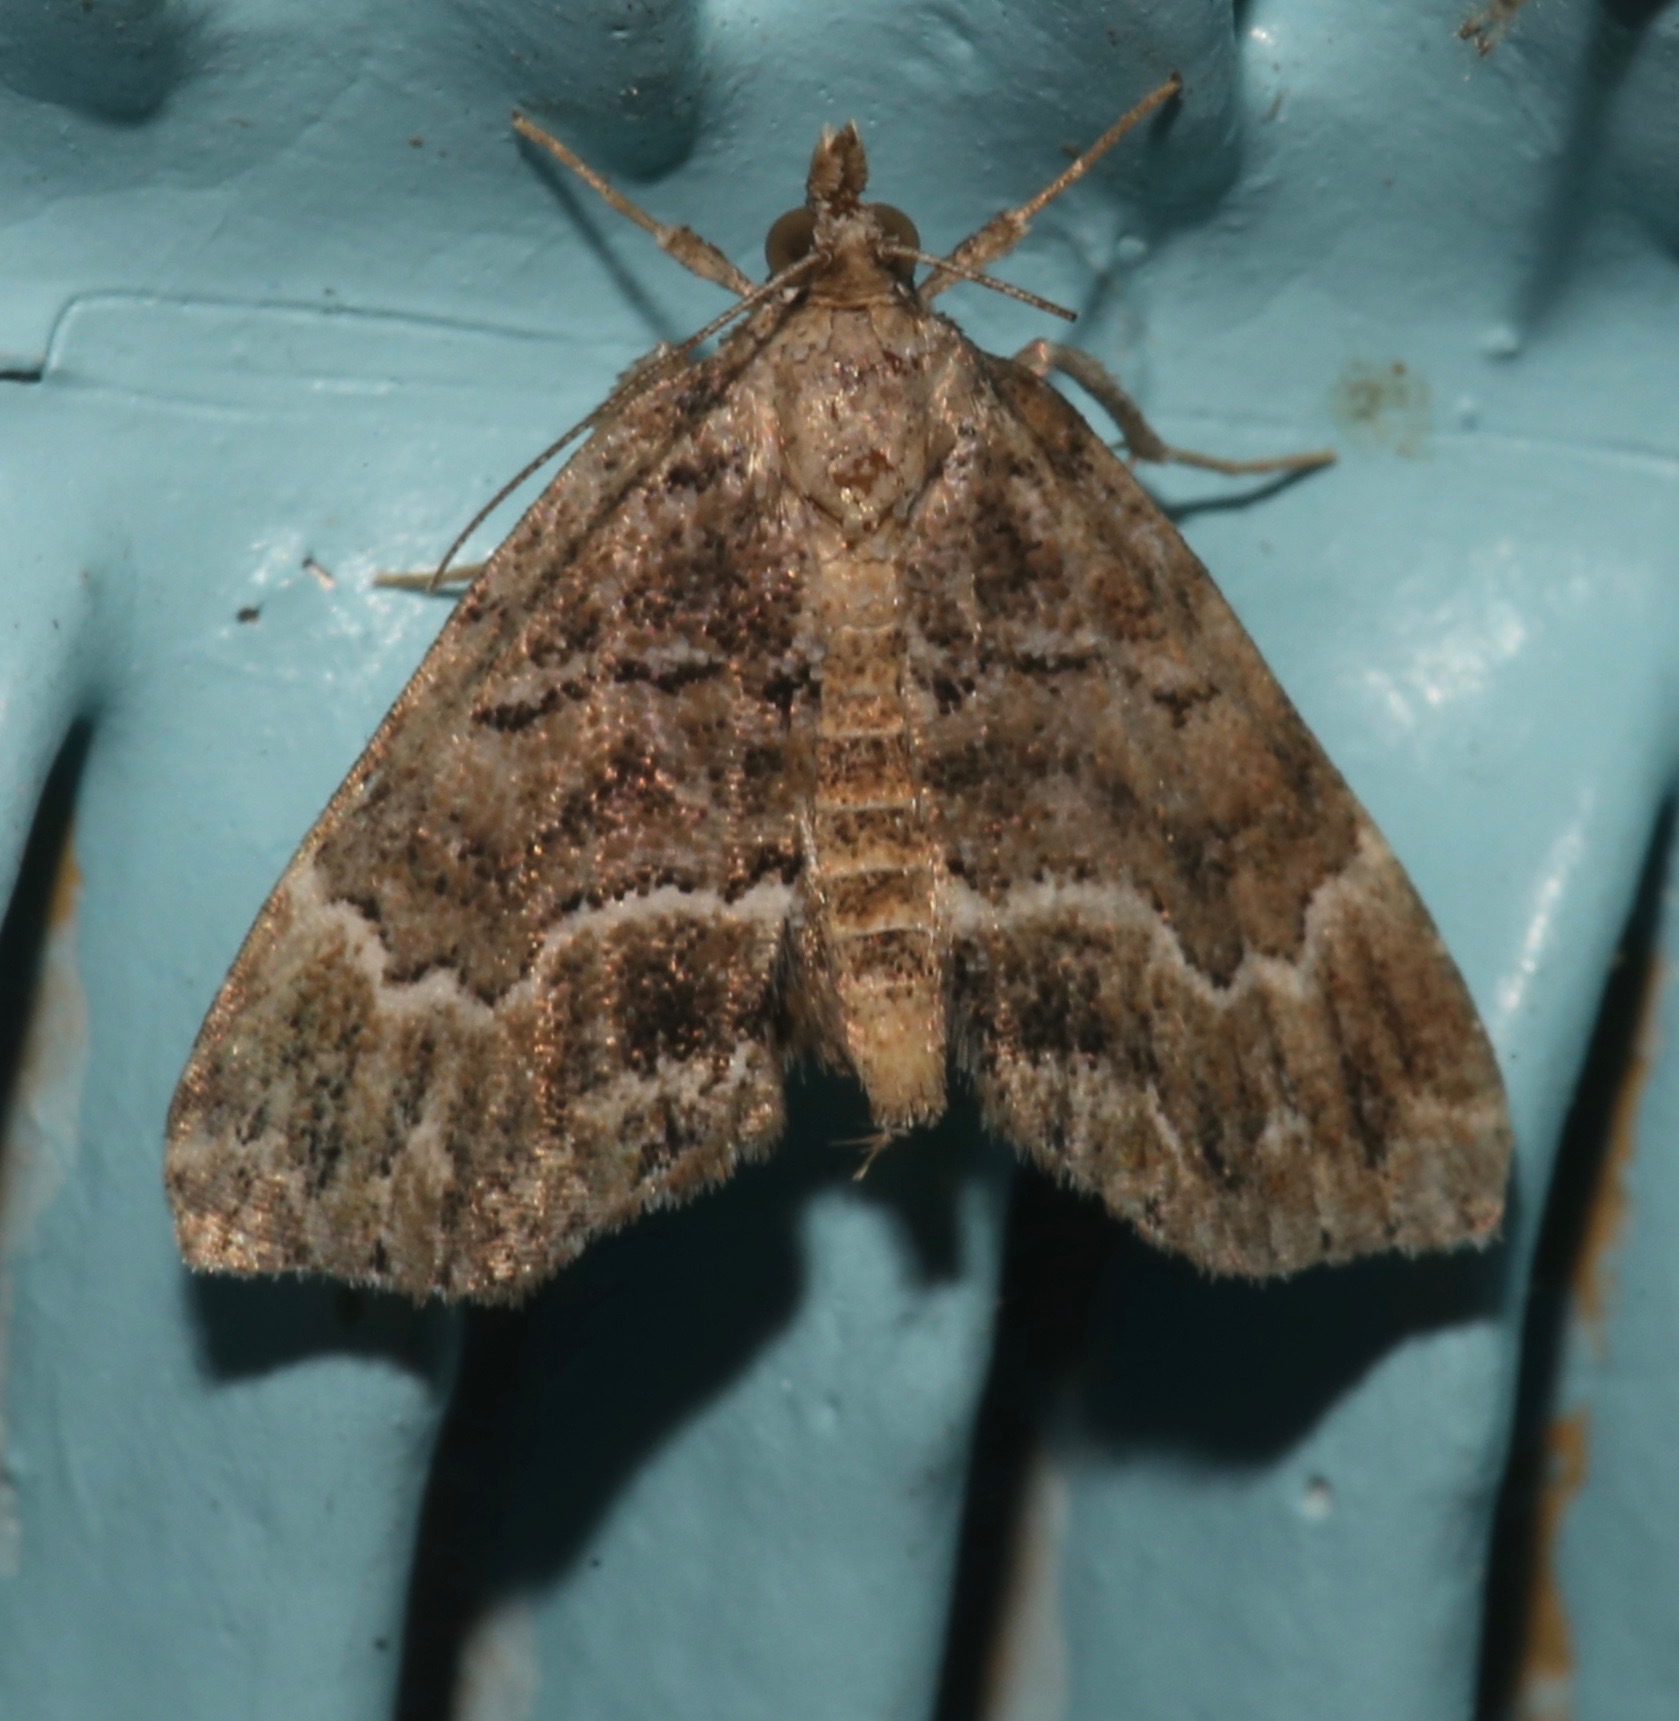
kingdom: Animalia
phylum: Arthropoda
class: Insecta
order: Lepidoptera
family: Erebidae
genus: Cutina
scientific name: Cutina arcuata
